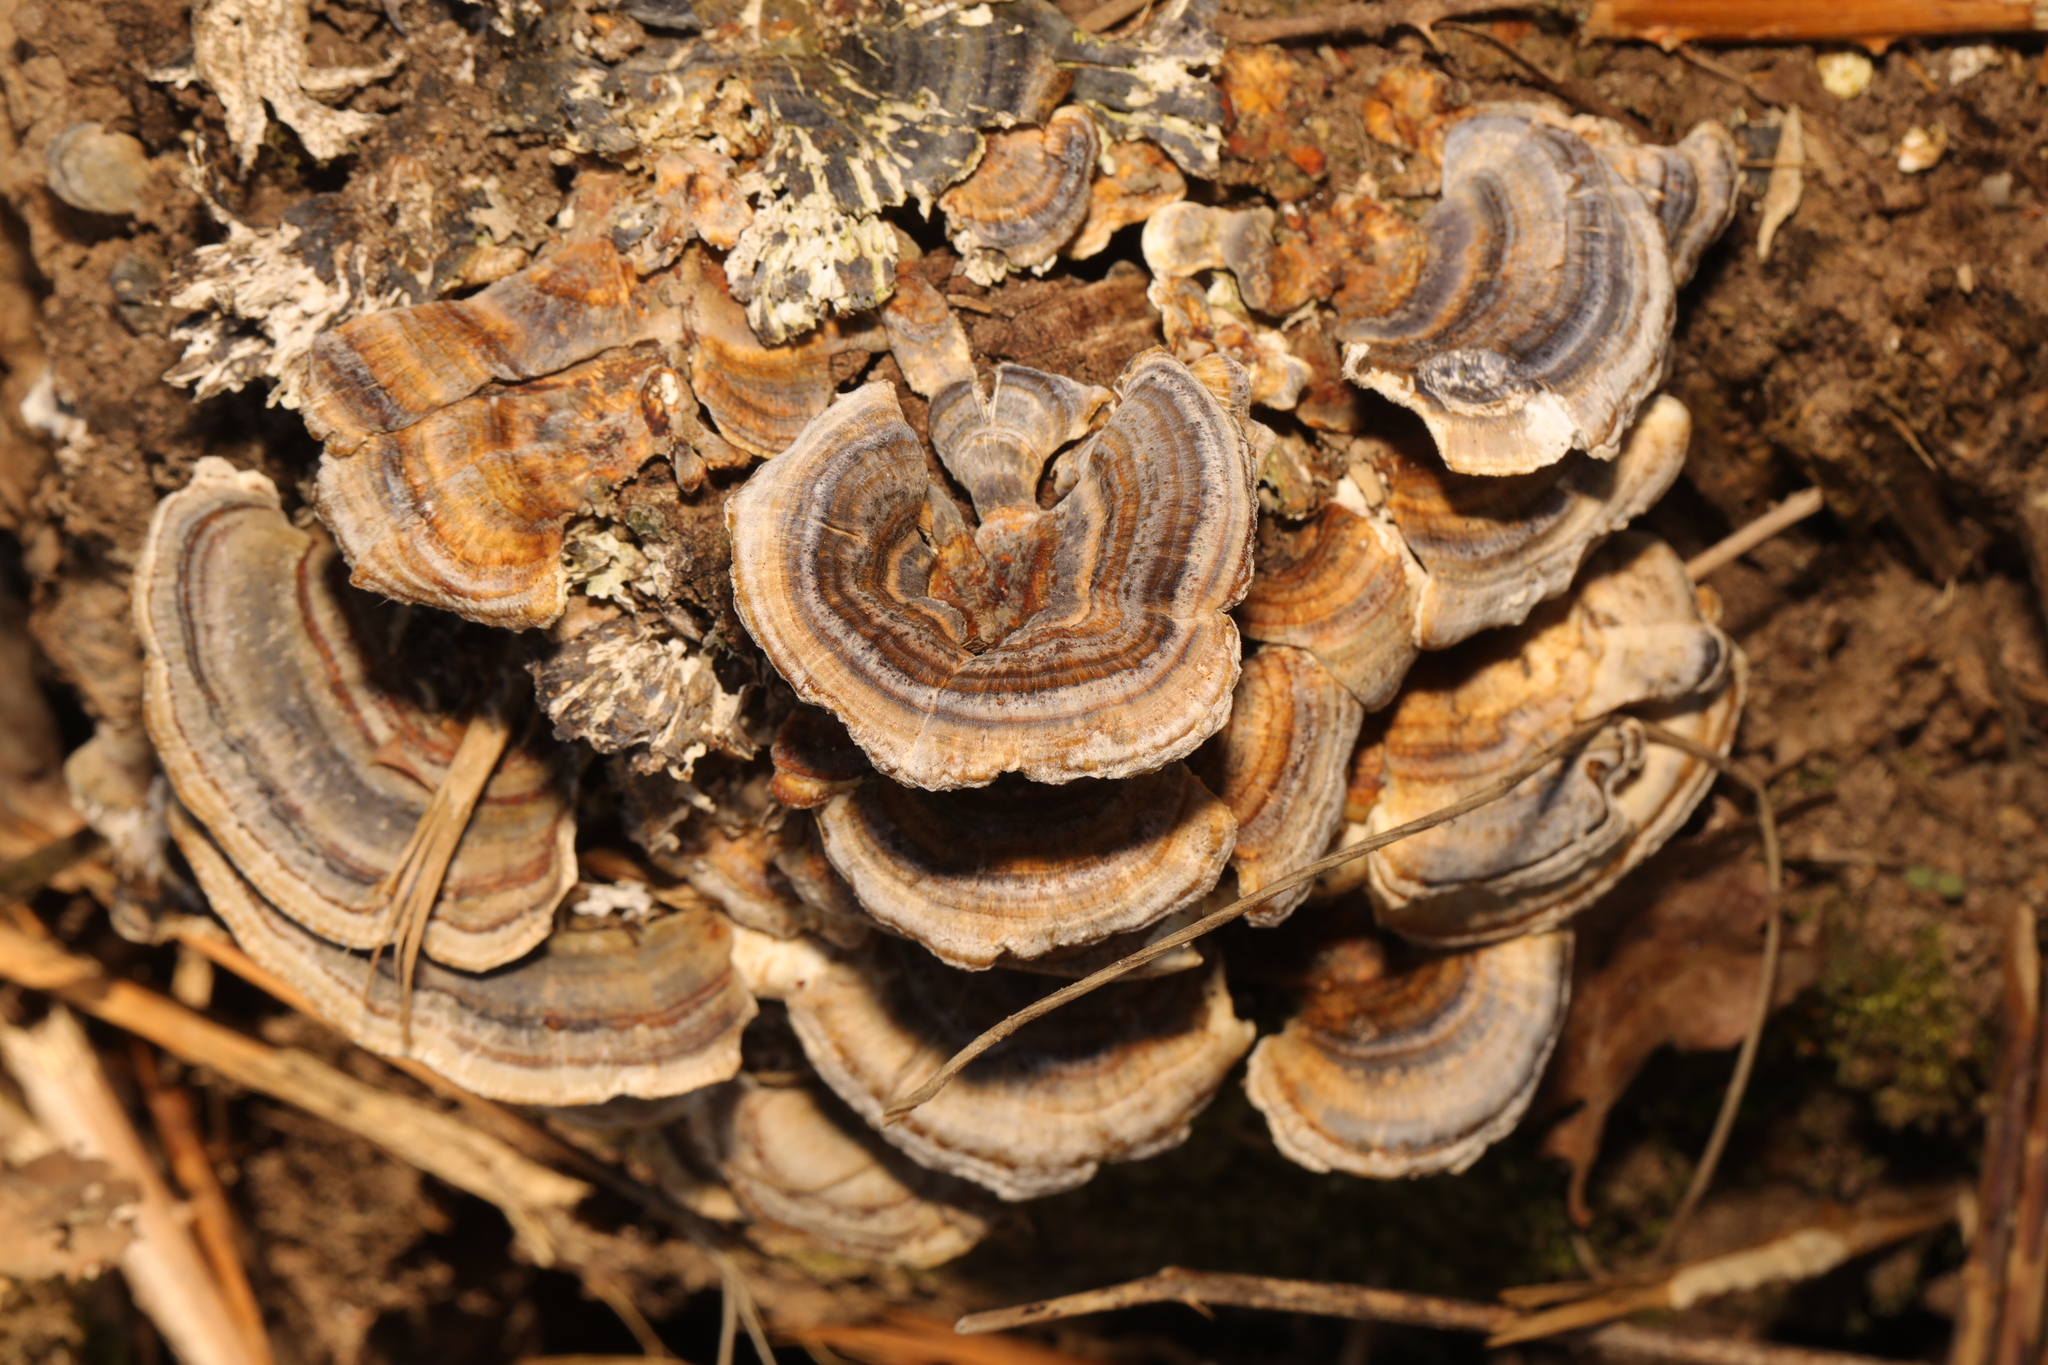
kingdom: Fungi
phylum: Basidiomycota
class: Agaricomycetes
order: Polyporales
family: Polyporaceae
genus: Trametes
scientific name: Trametes versicolor
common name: Turkeytail
